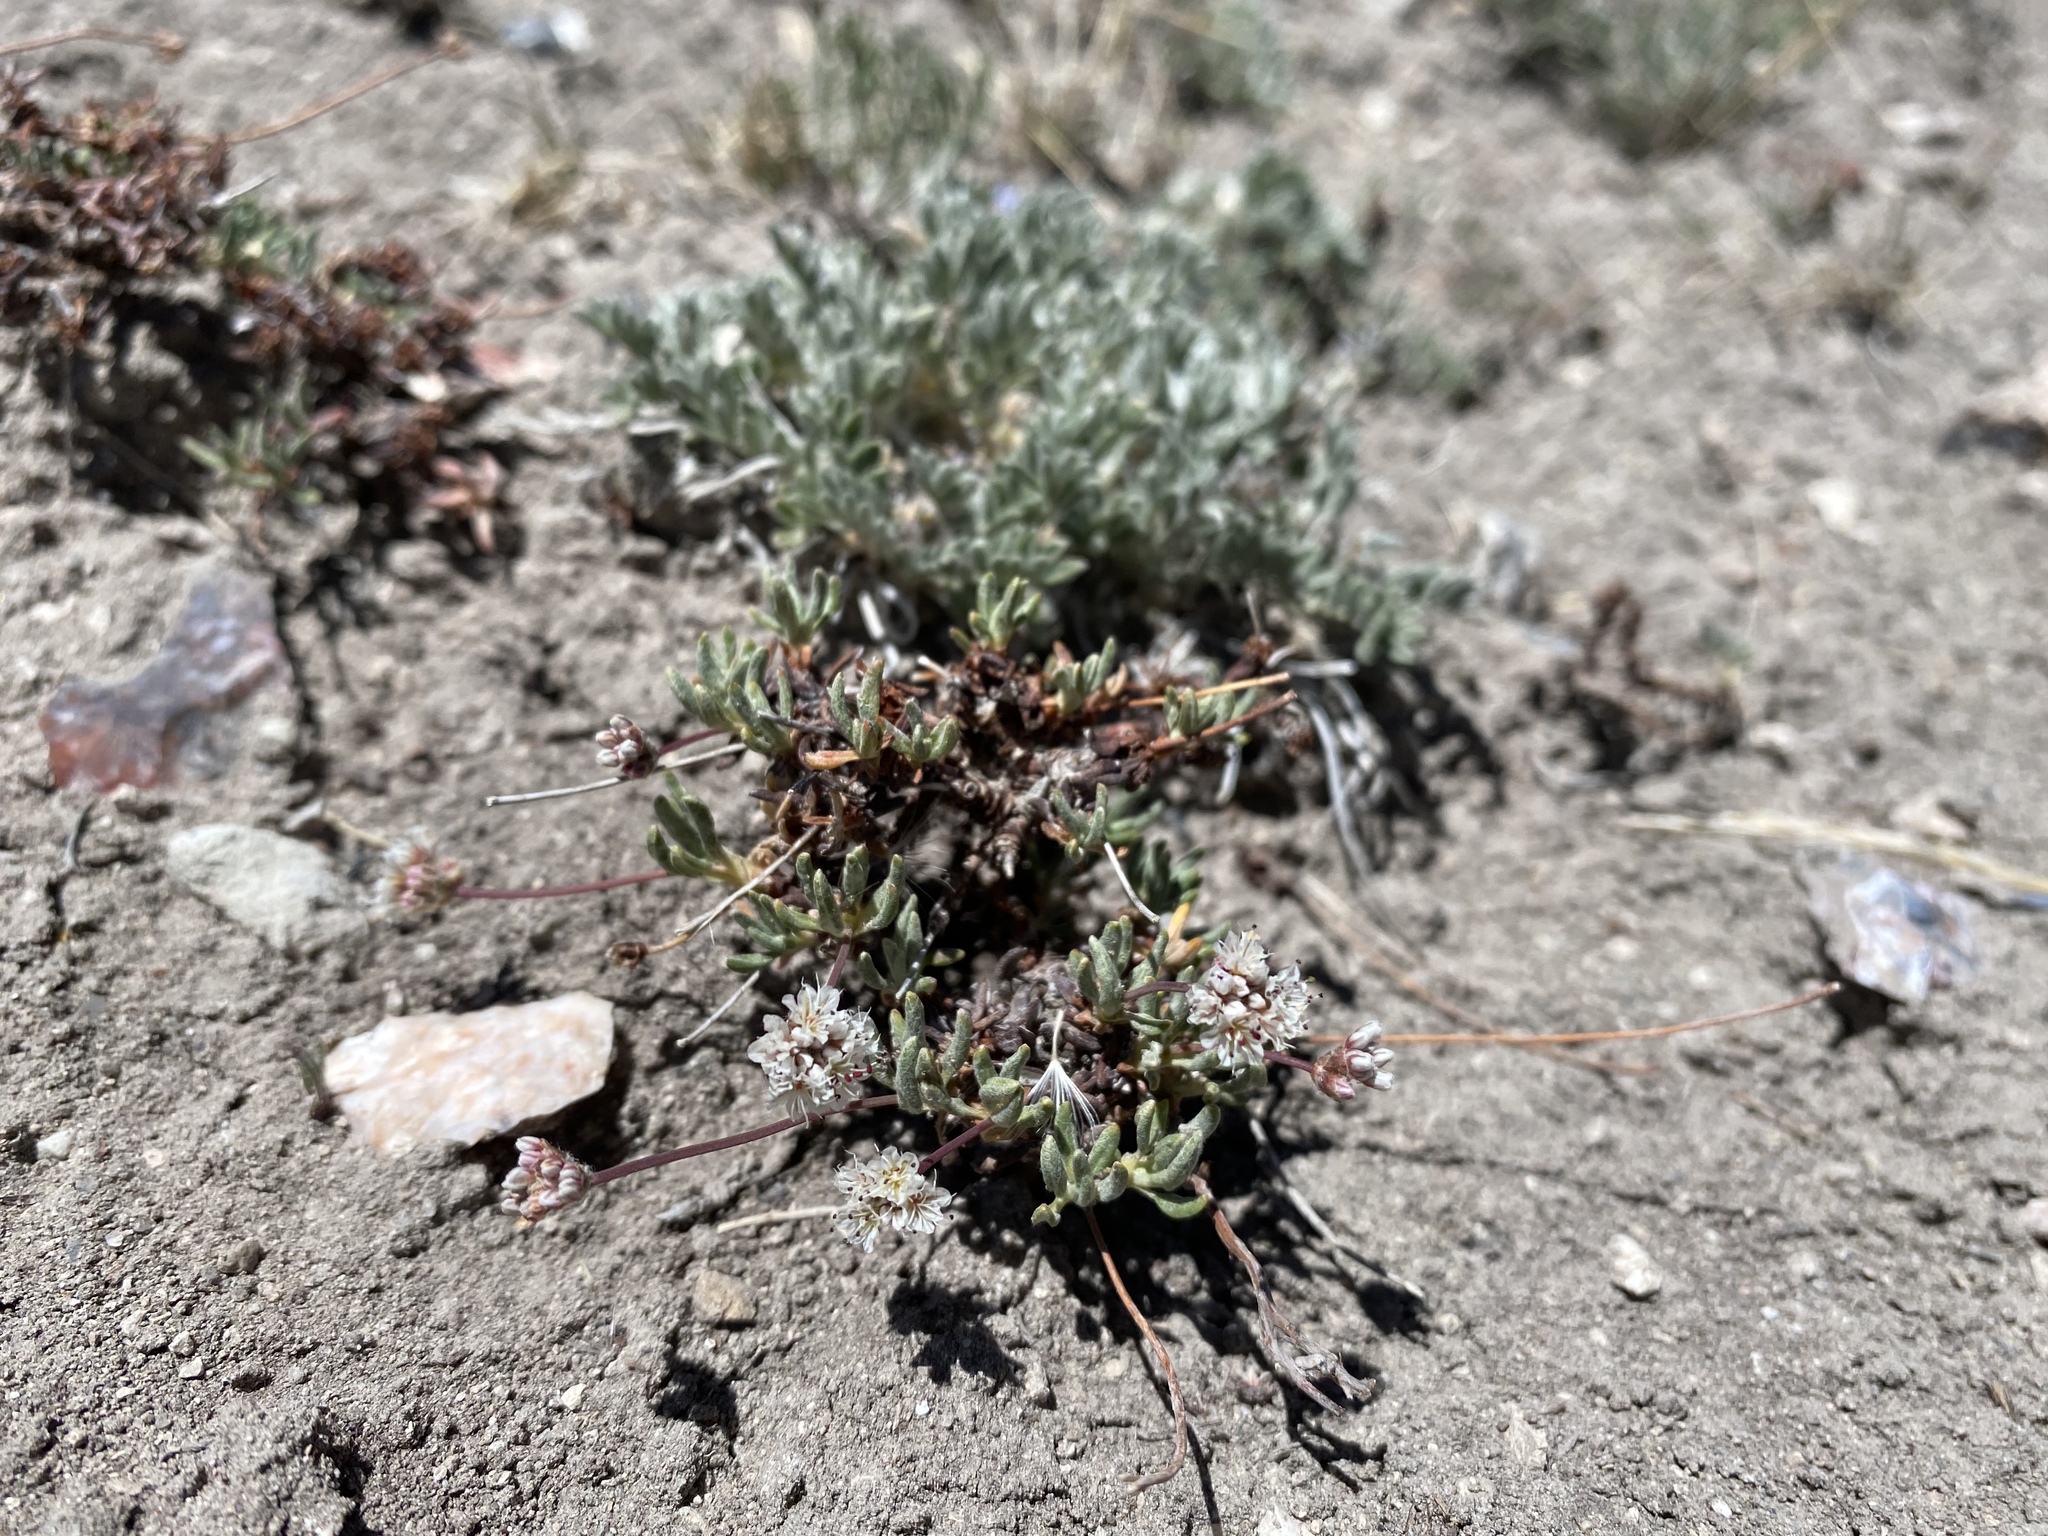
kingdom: Plantae
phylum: Tracheophyta
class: Magnoliopsida
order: Caryophyllales
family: Polygonaceae
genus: Eriogonum
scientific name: Eriogonum panguicense
